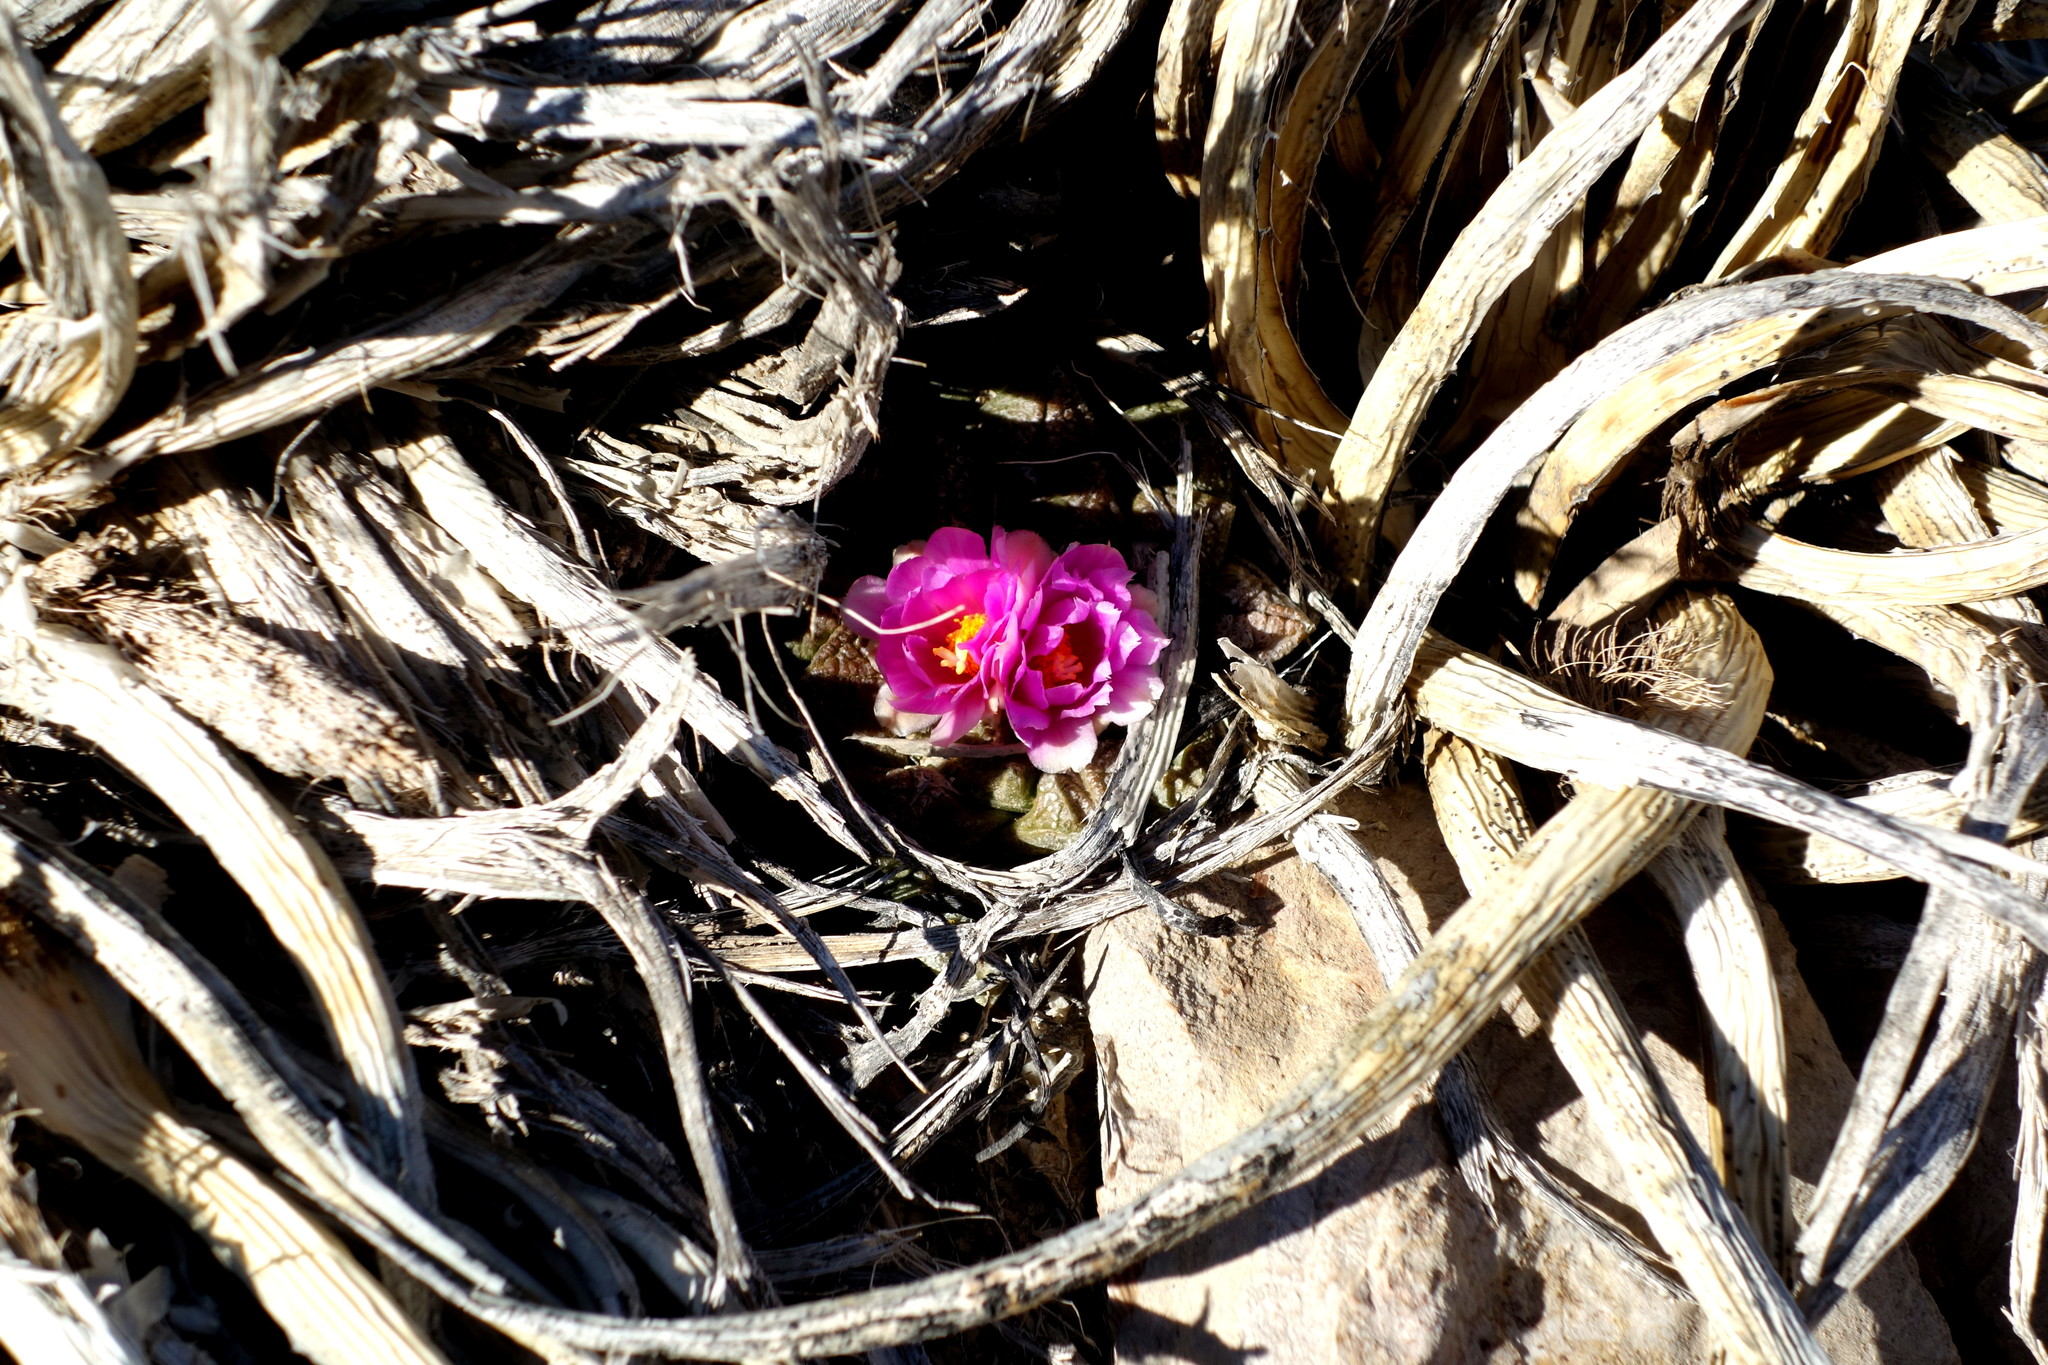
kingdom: Plantae
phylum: Tracheophyta
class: Magnoliopsida
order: Caryophyllales
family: Cactaceae
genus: Ariocarpus
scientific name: Ariocarpus fissuratus
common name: Chautle-living rock
